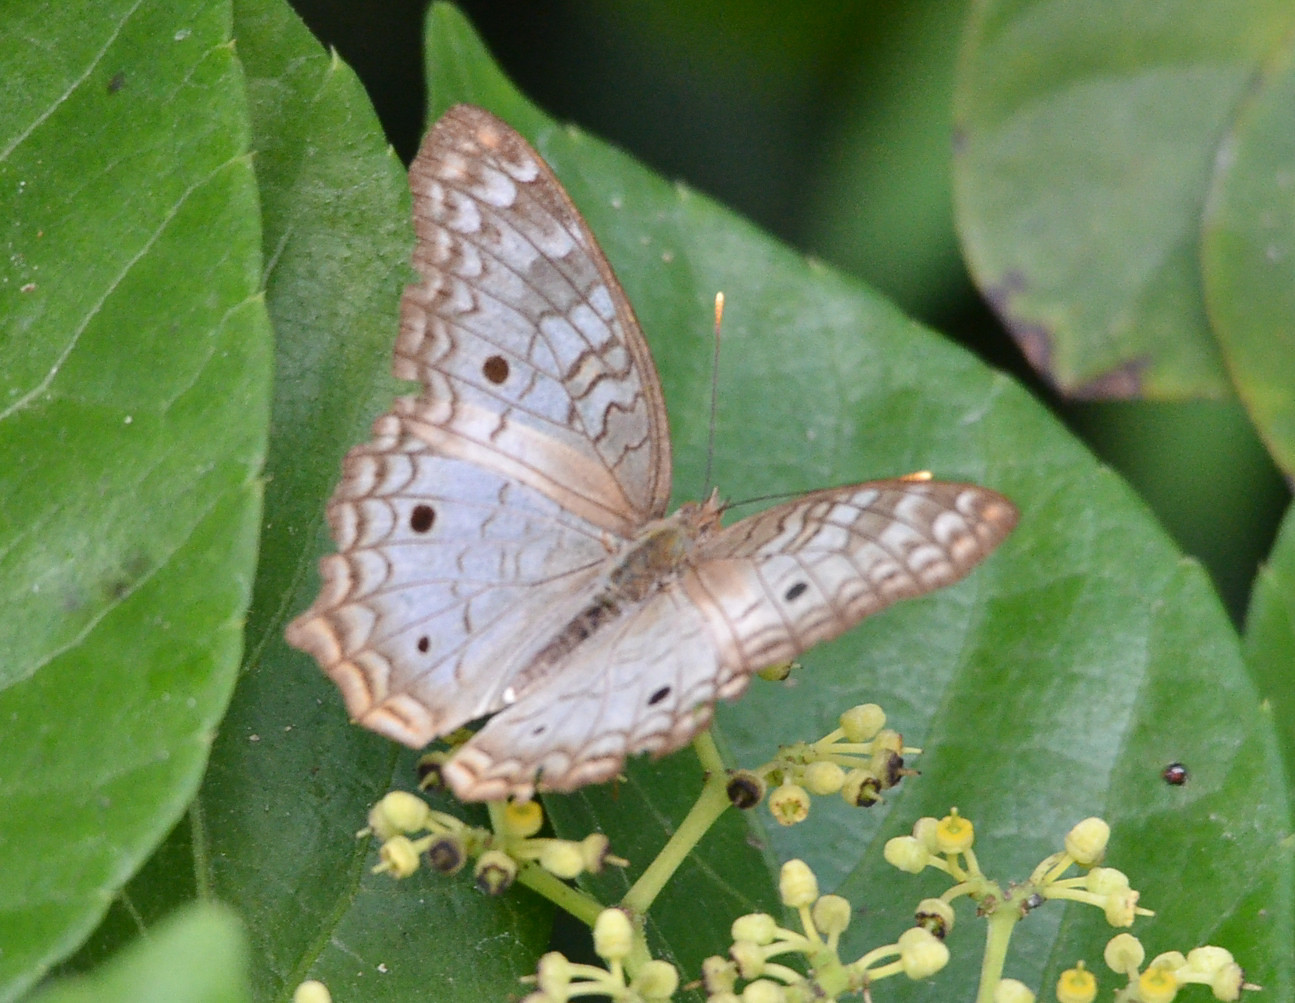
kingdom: Animalia
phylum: Arthropoda
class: Insecta
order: Lepidoptera
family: Nymphalidae
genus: Anartia
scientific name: Anartia jatrophae
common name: White peacock
